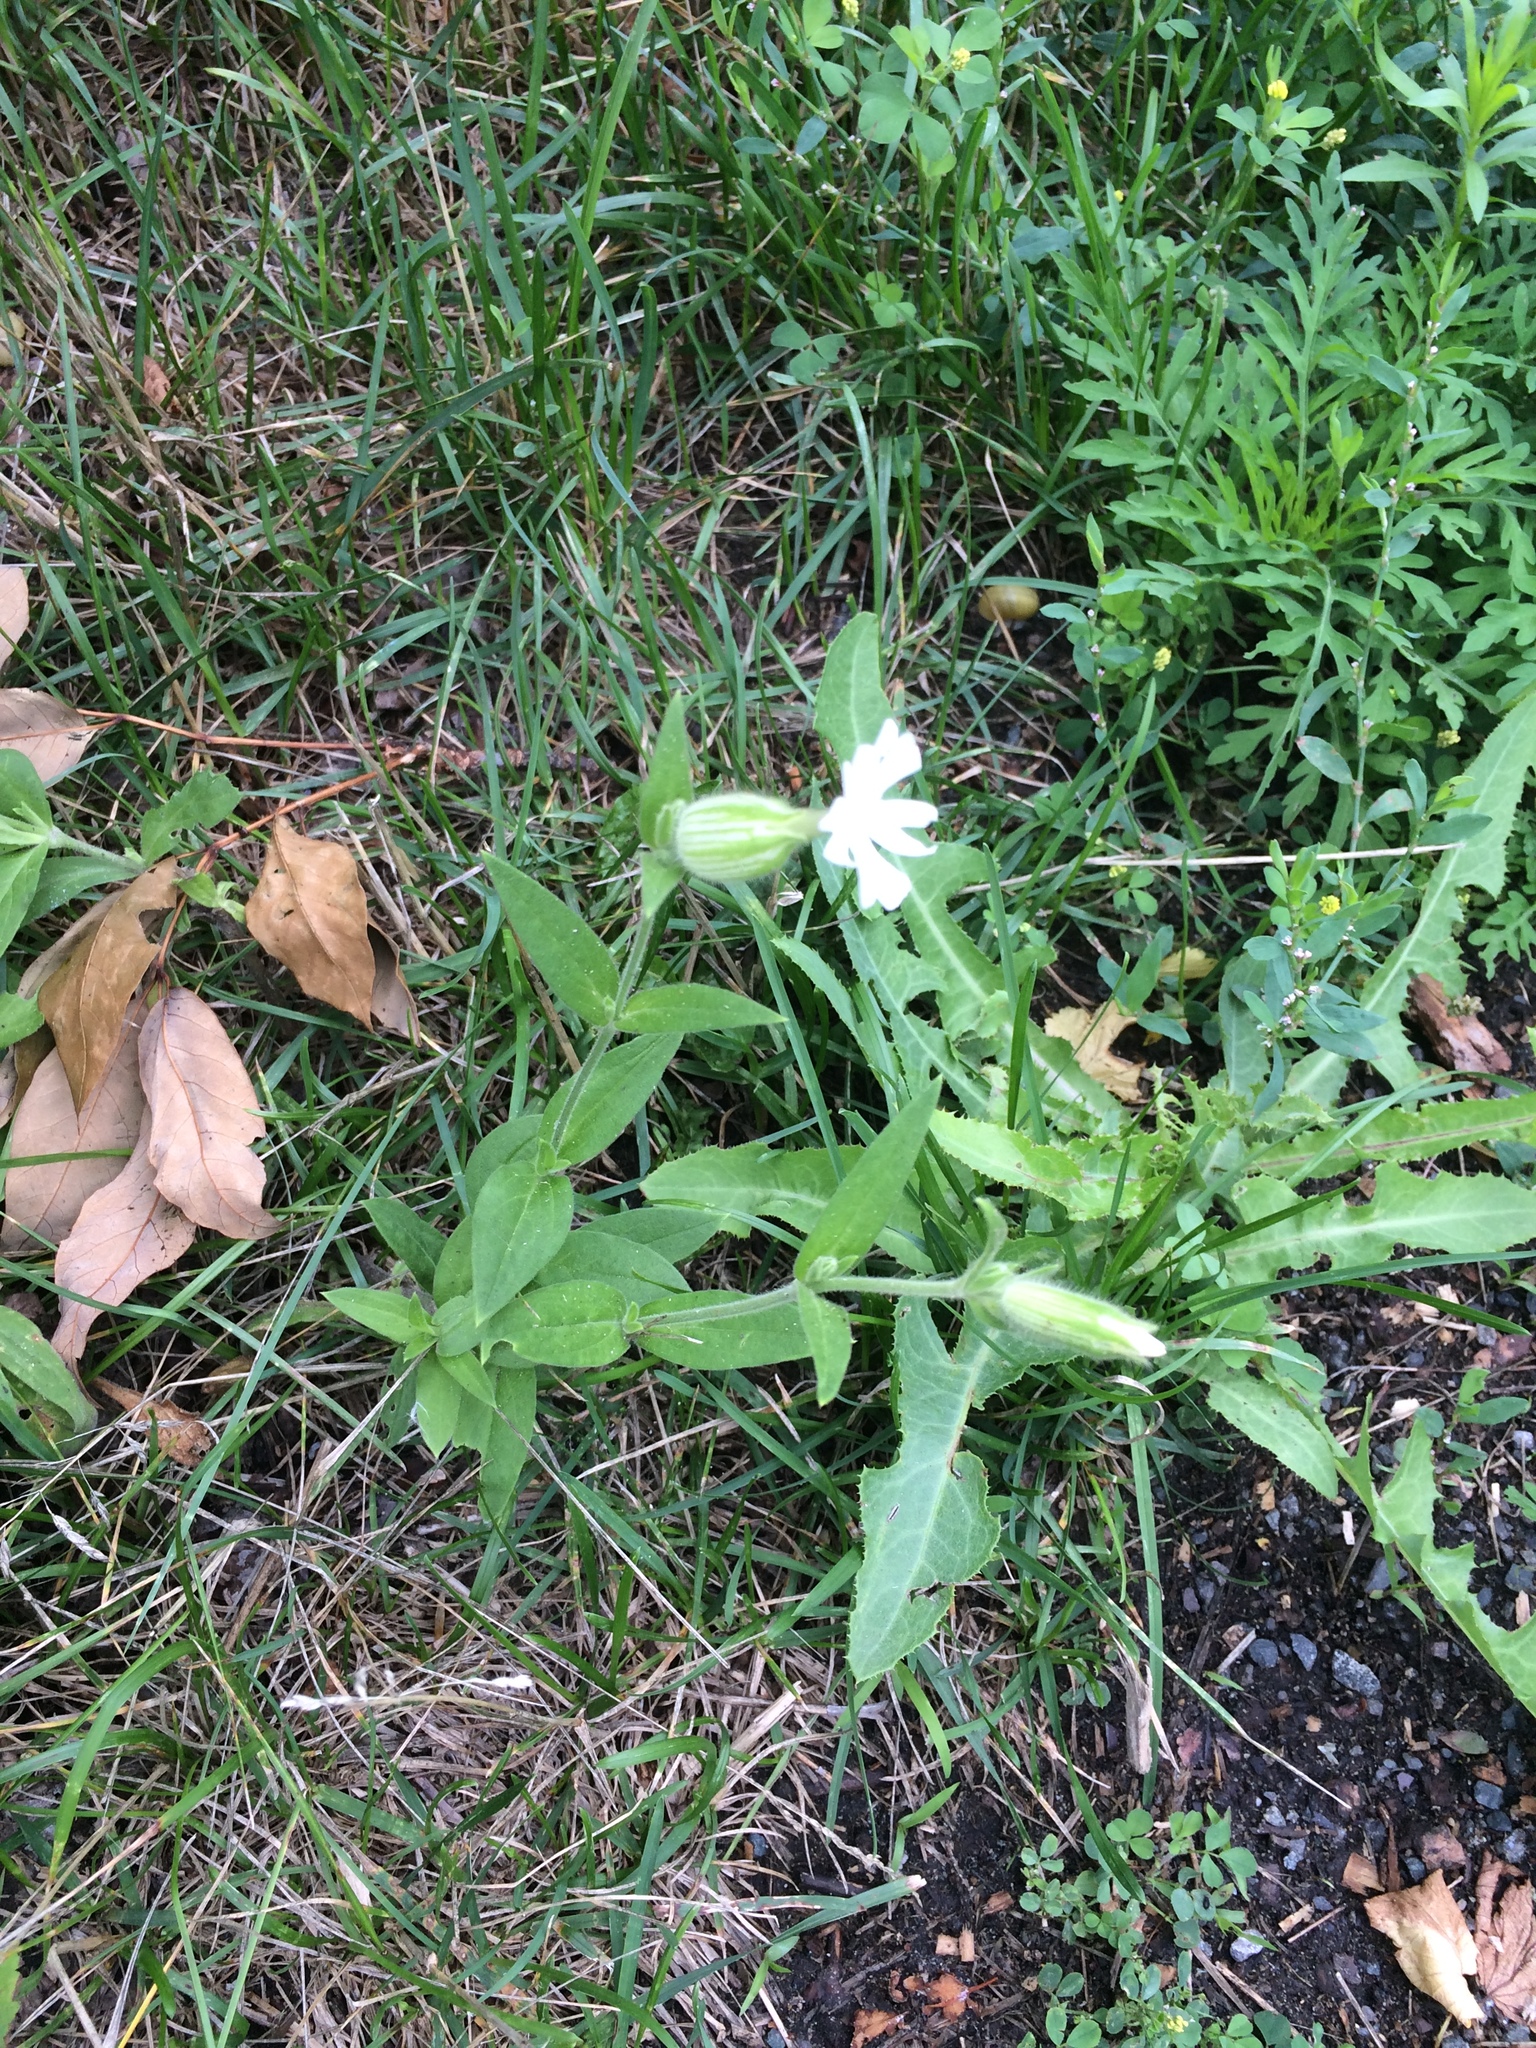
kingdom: Plantae
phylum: Tracheophyta
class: Magnoliopsida
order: Caryophyllales
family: Caryophyllaceae
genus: Silene
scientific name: Silene latifolia
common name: White campion
